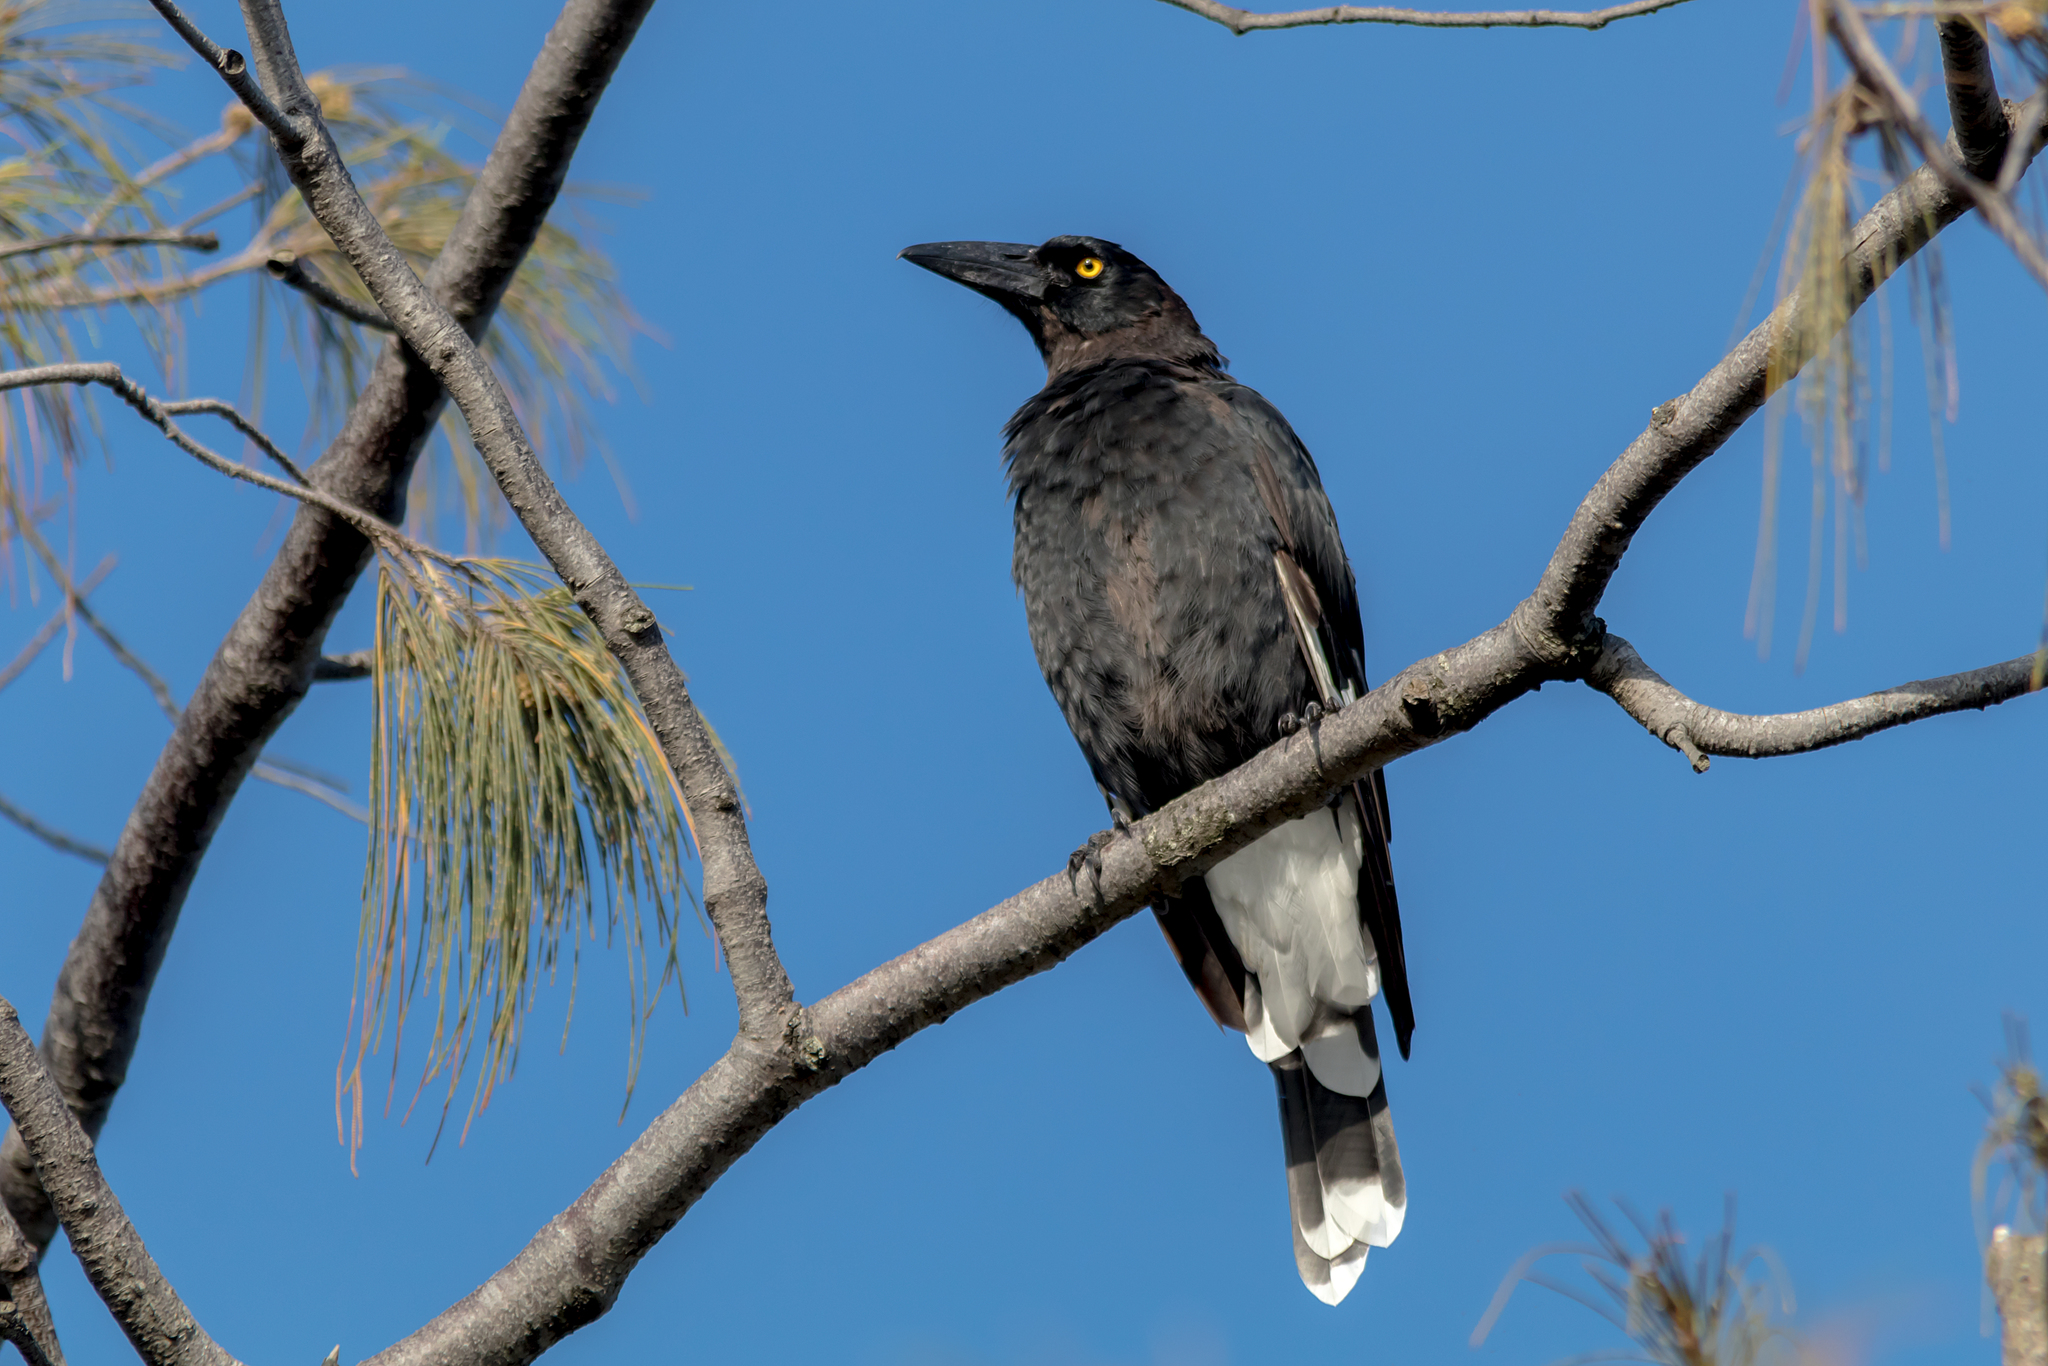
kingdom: Animalia
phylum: Chordata
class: Aves
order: Passeriformes
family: Cracticidae
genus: Strepera
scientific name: Strepera graculina
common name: Pied currawong
